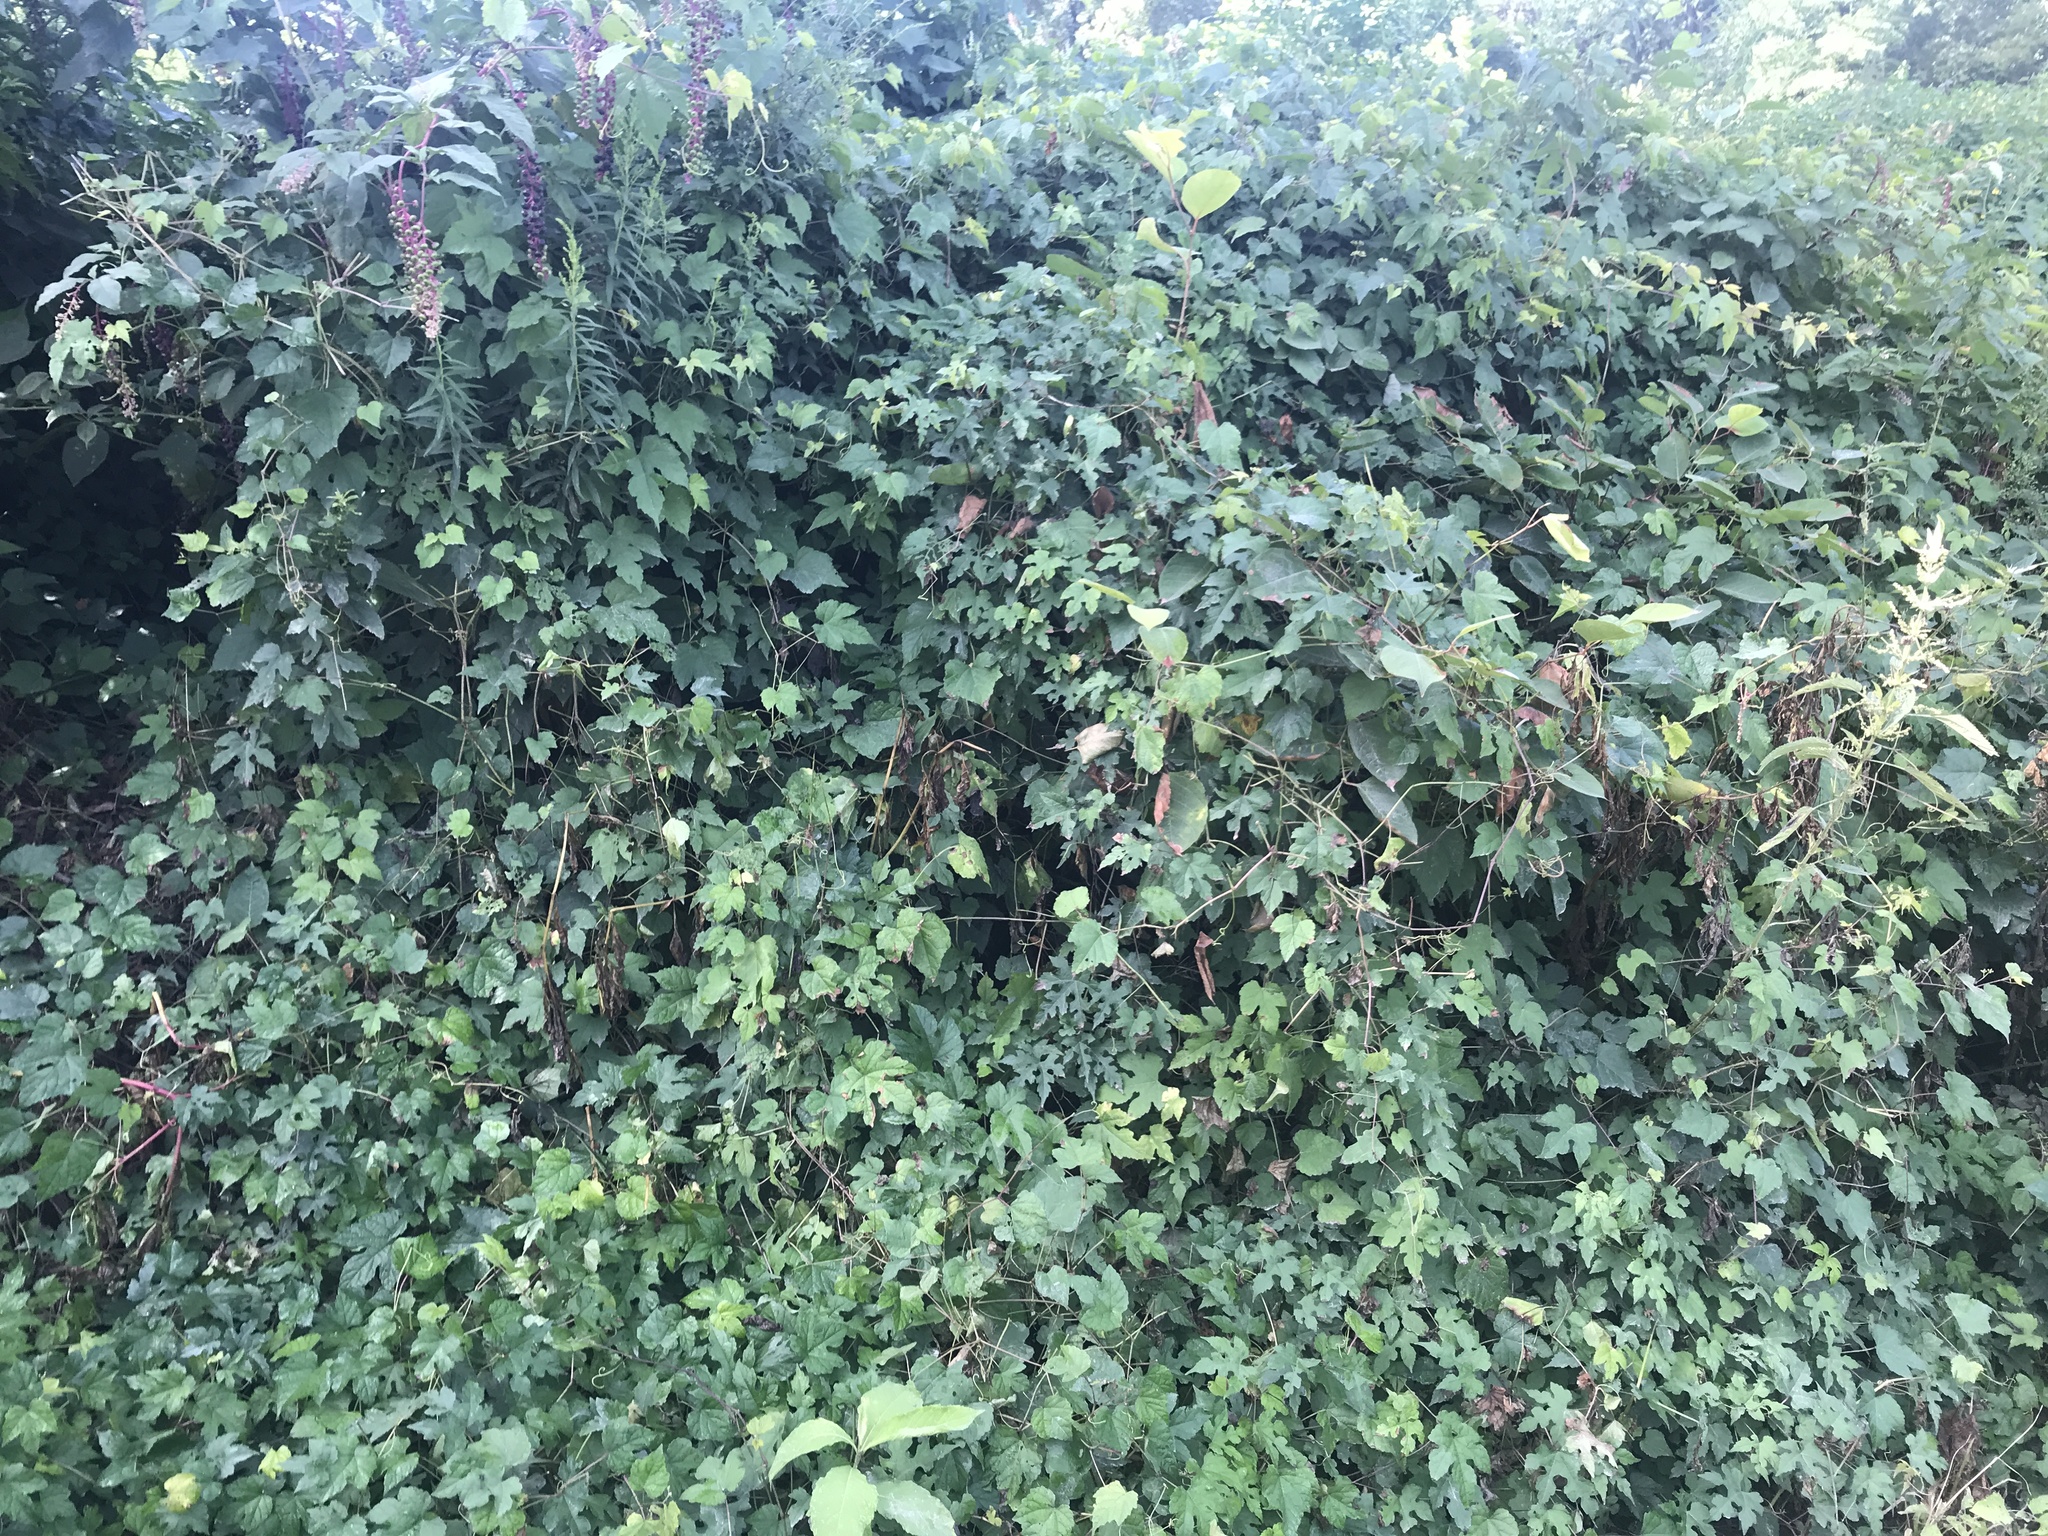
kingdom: Plantae
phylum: Tracheophyta
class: Magnoliopsida
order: Vitales
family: Vitaceae
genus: Ampelopsis
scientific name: Ampelopsis glandulosa
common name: Amur peppervine
